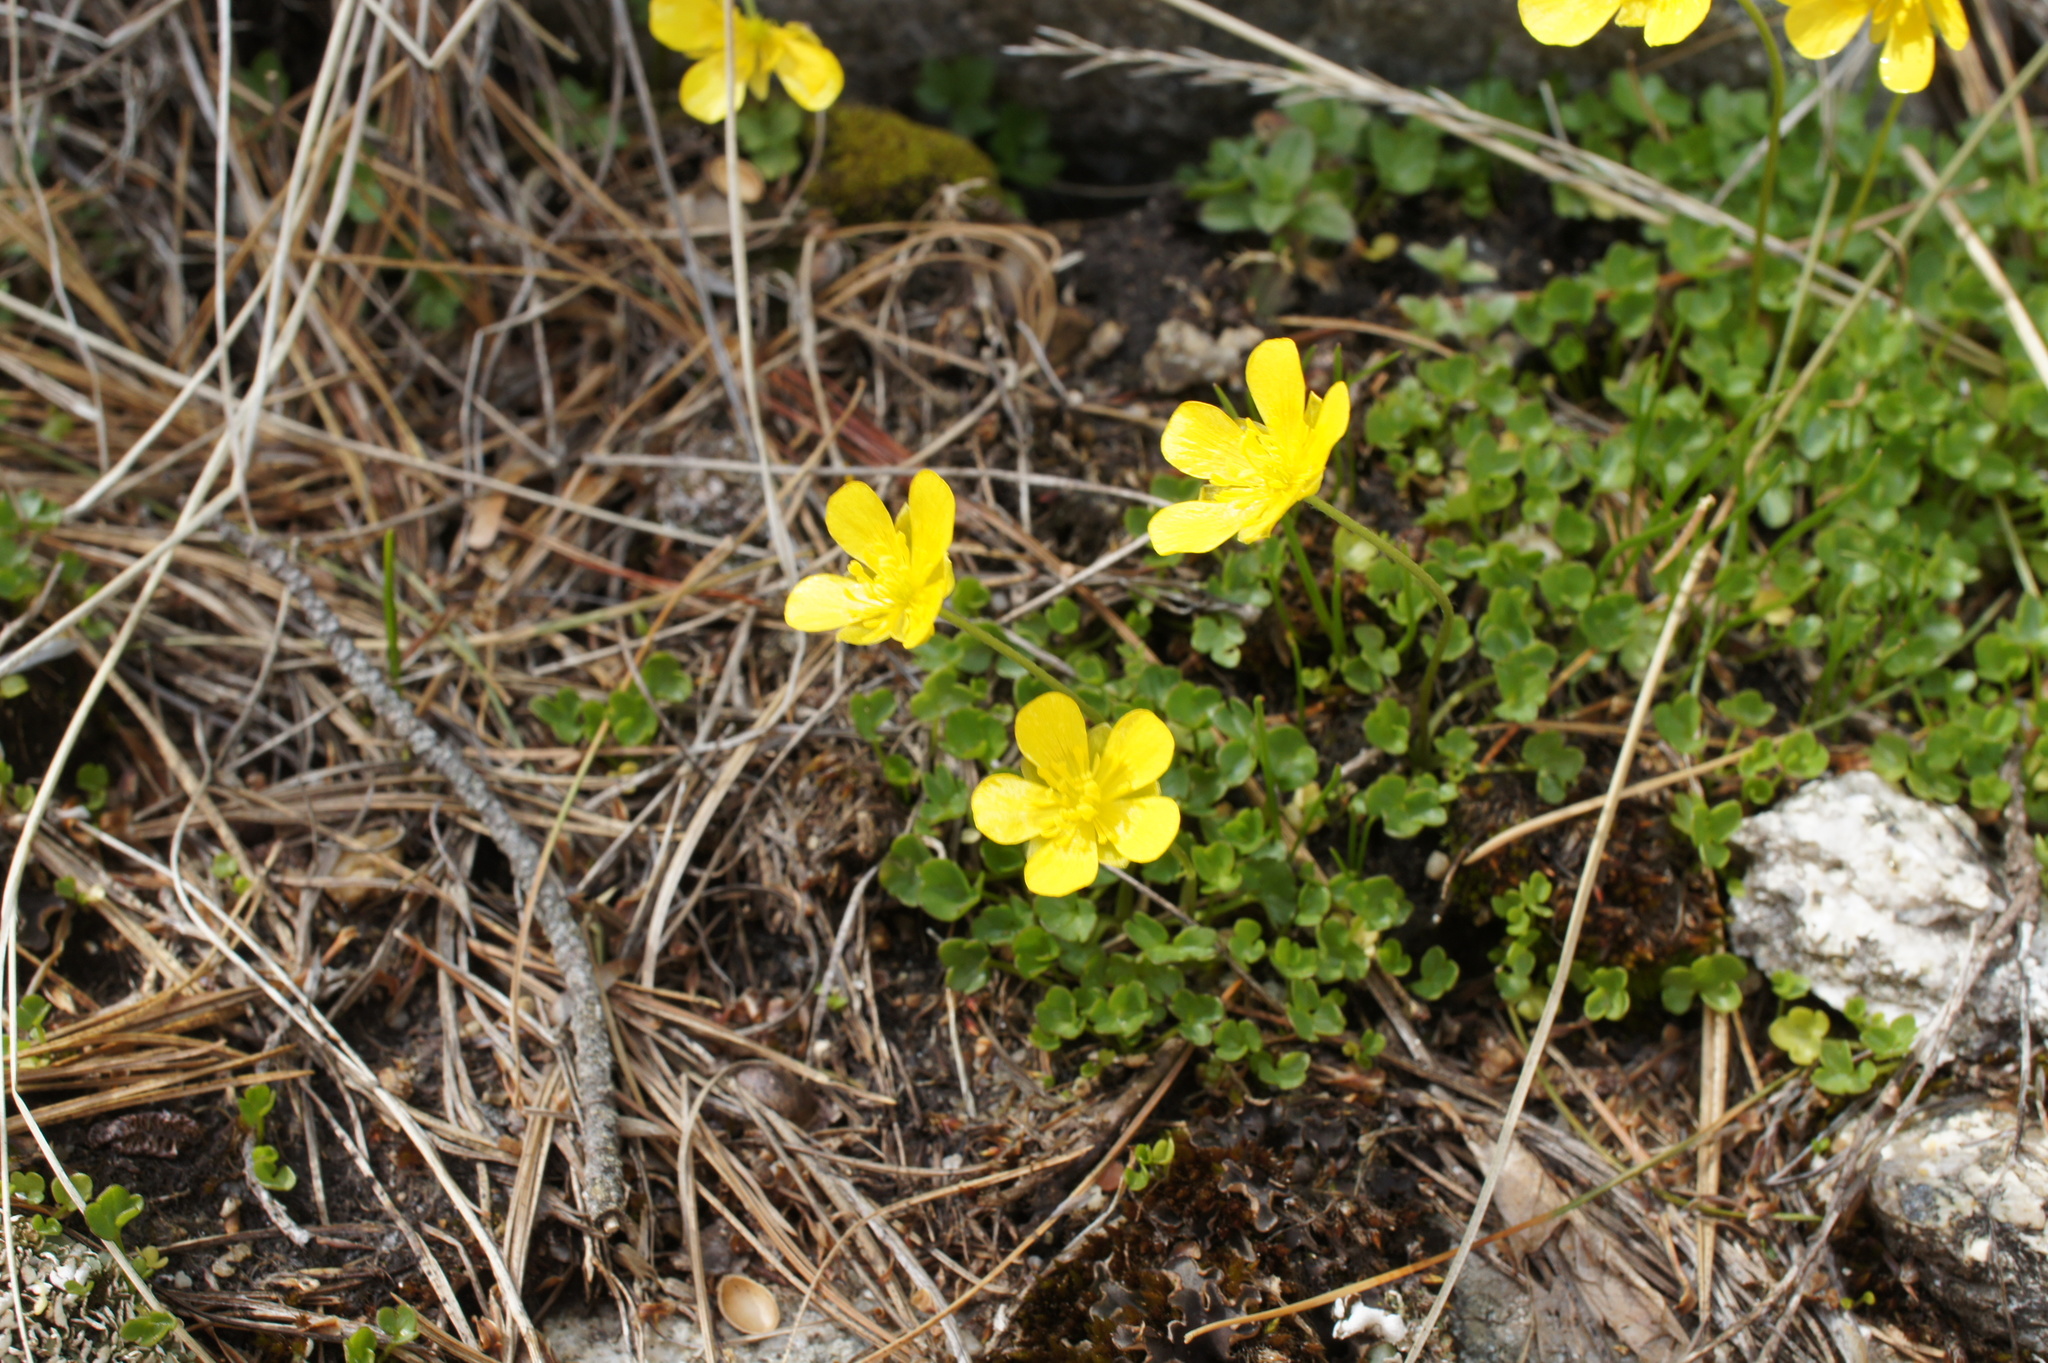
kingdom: Plantae
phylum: Tracheophyta
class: Magnoliopsida
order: Ranunculales
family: Ranunculaceae
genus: Ranunculus
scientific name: Ranunculus incomparabilis
